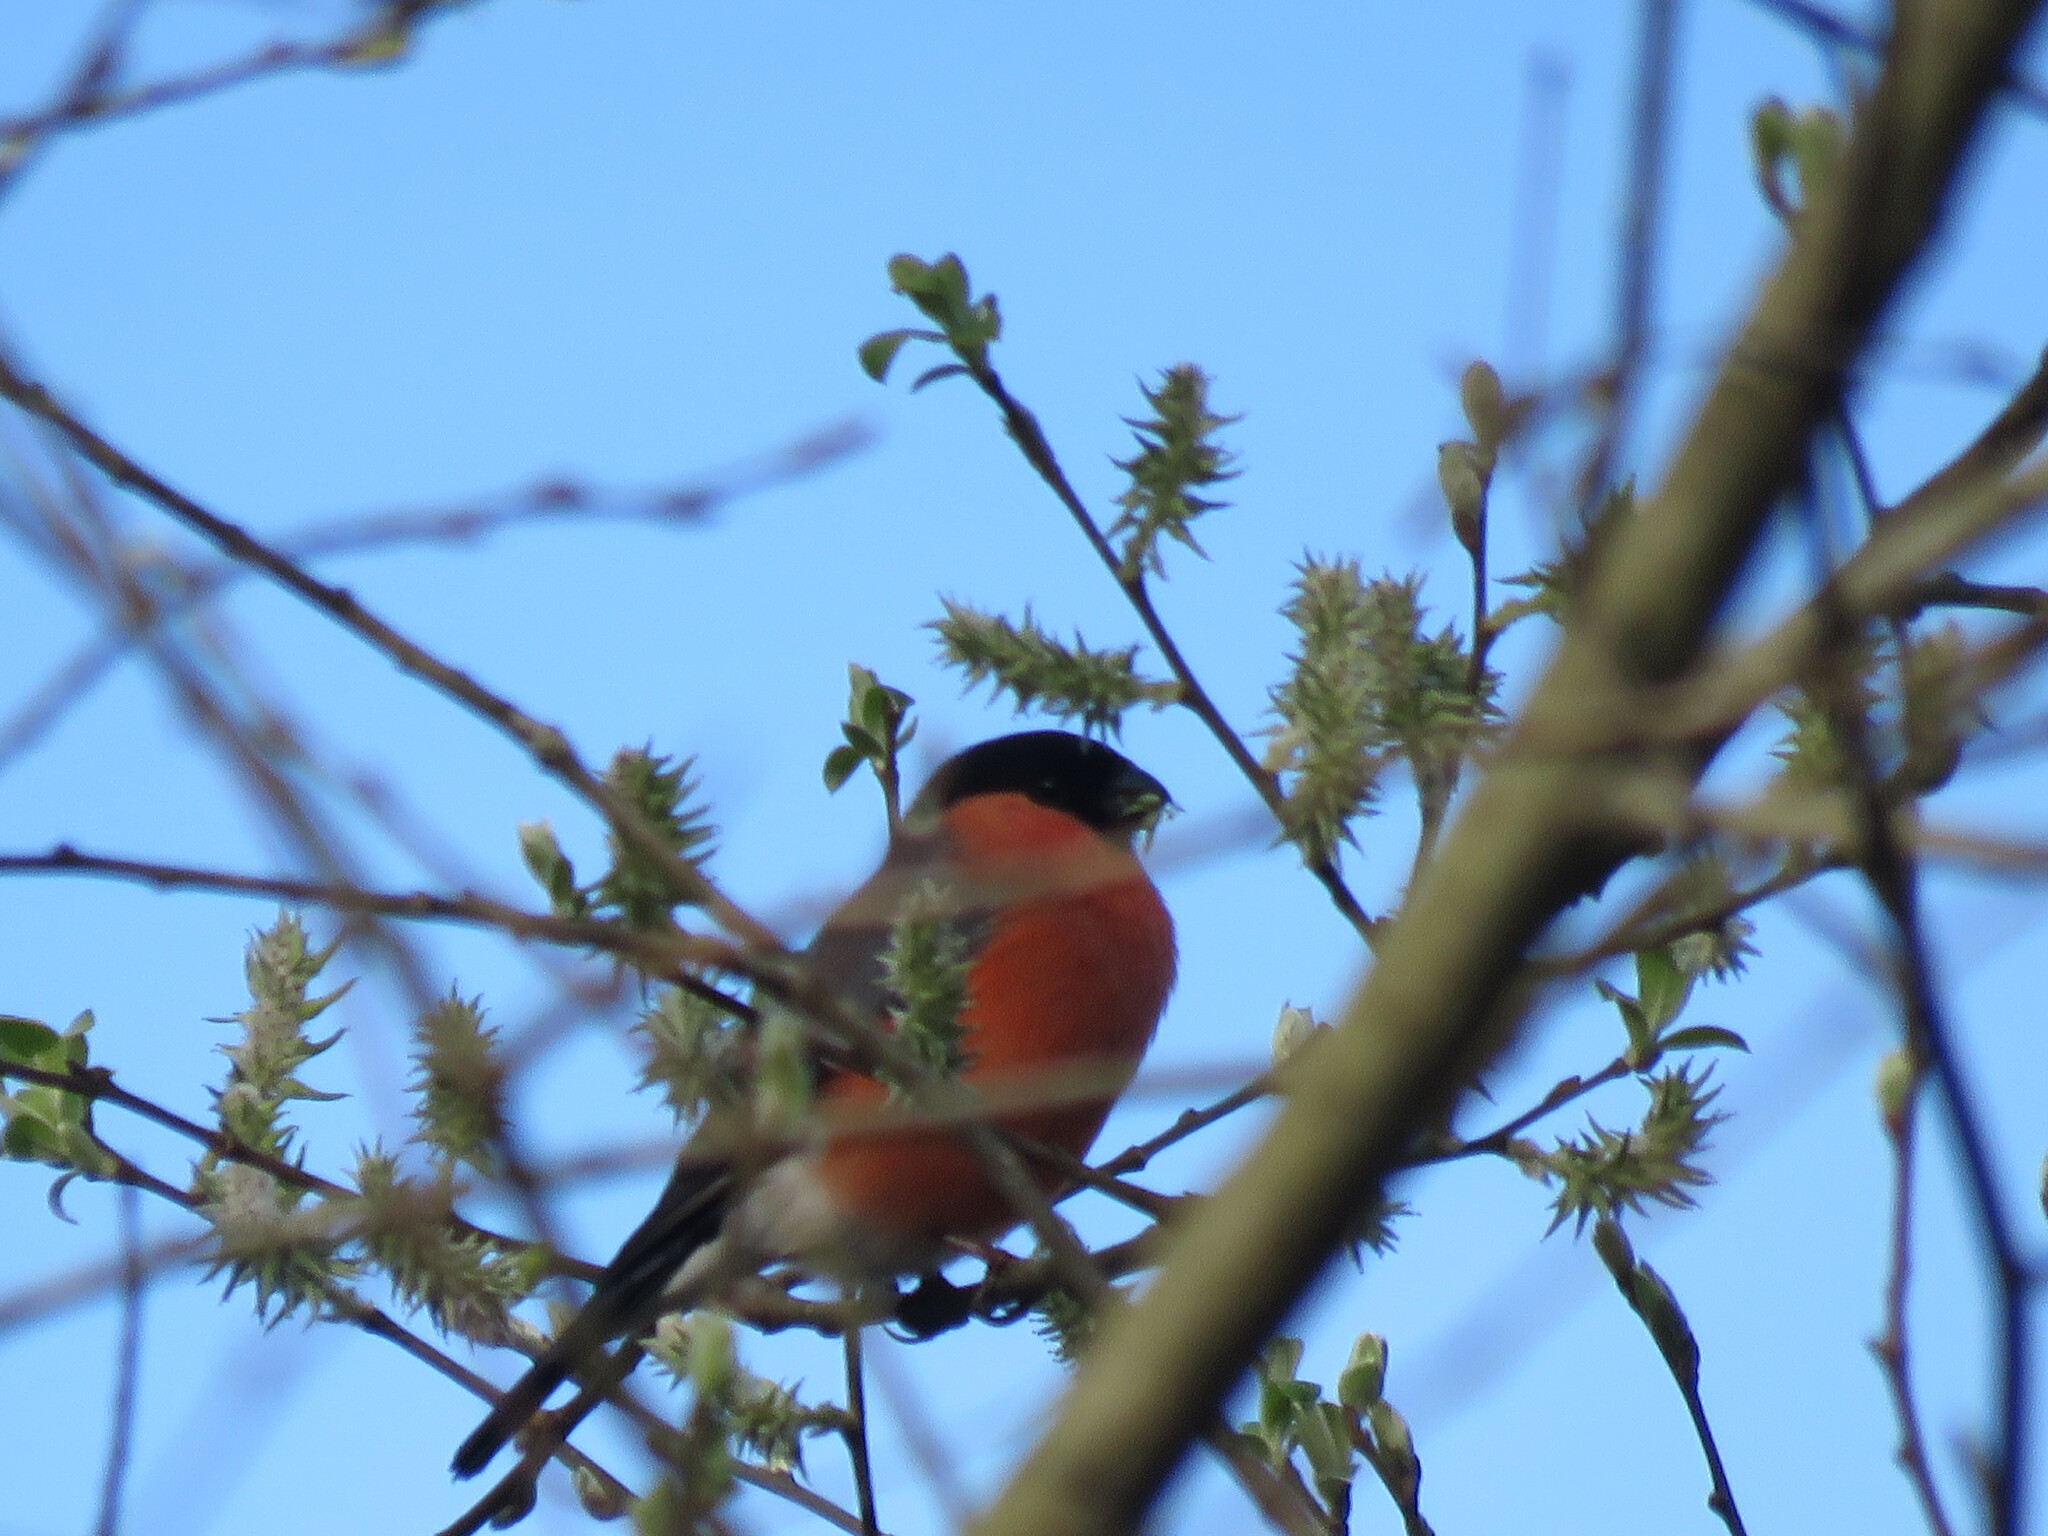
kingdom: Animalia
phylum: Chordata
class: Aves
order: Passeriformes
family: Fringillidae
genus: Pyrrhula
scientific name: Pyrrhula pyrrhula
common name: Eurasian bullfinch
